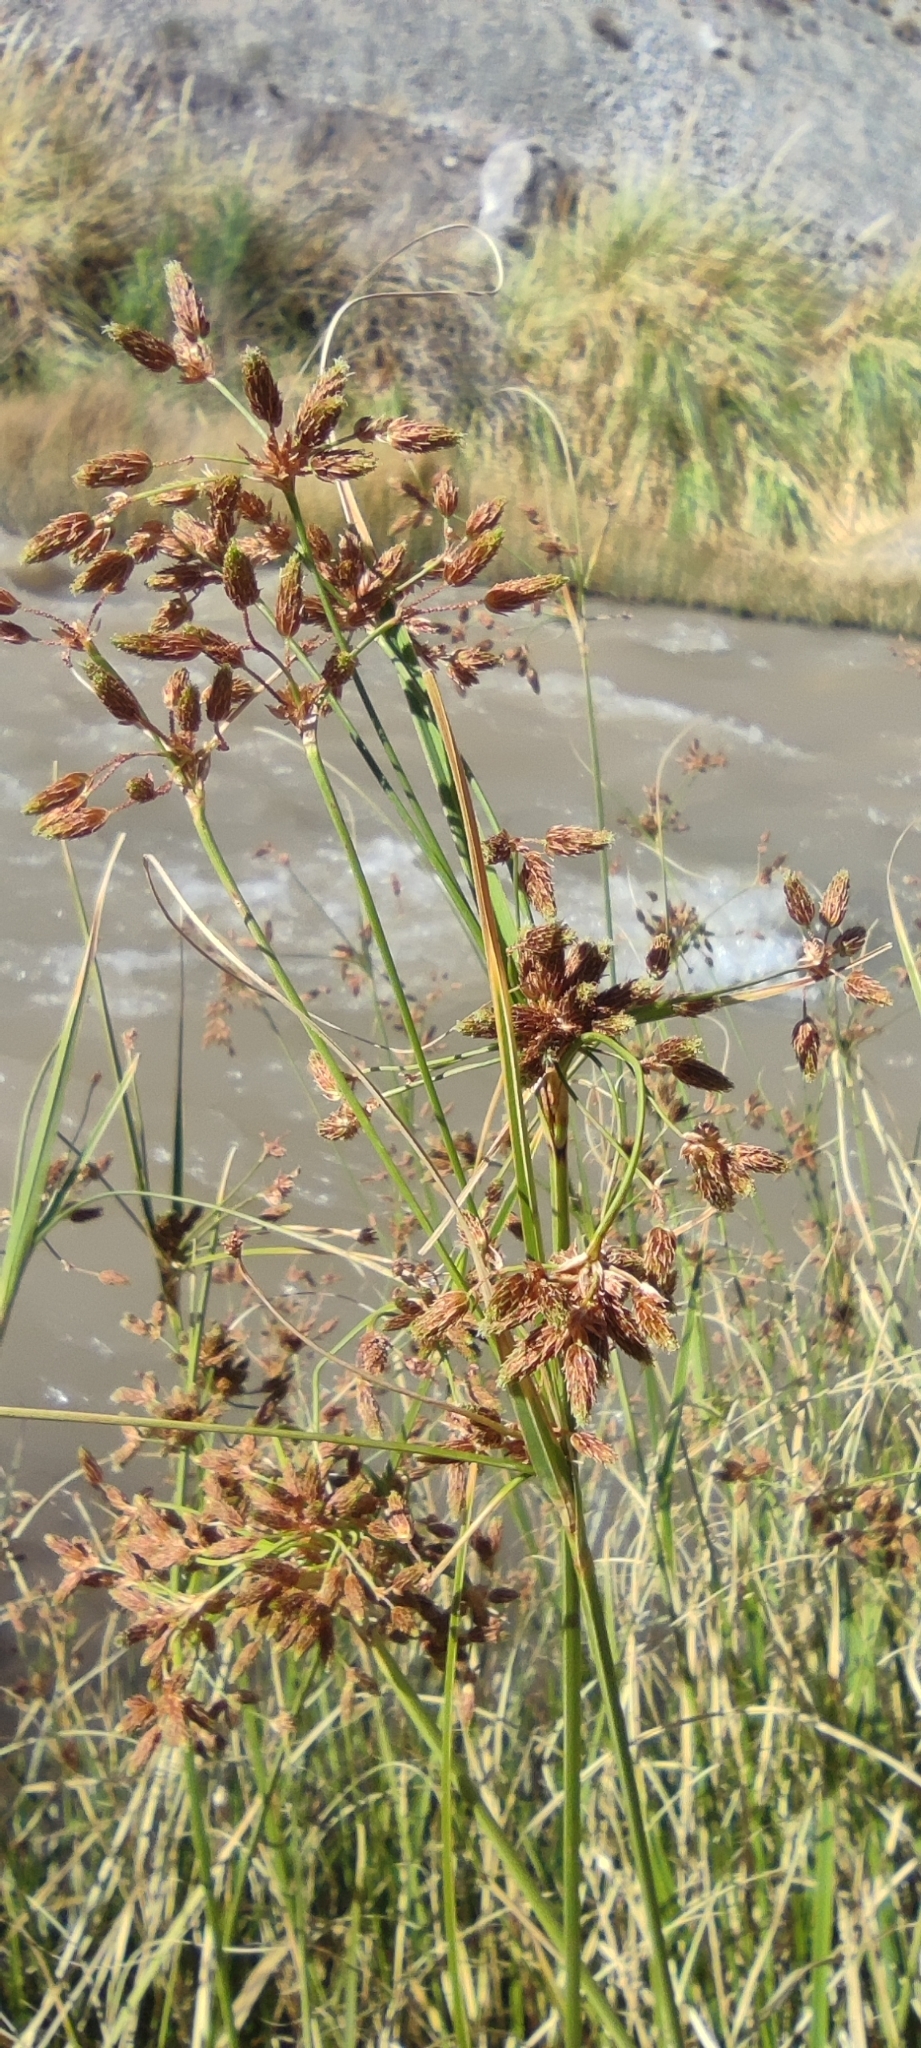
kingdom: Plantae
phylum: Tracheophyta
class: Liliopsida
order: Poales
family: Cyperaceae
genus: Rhodoscirpus
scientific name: Rhodoscirpus asper
